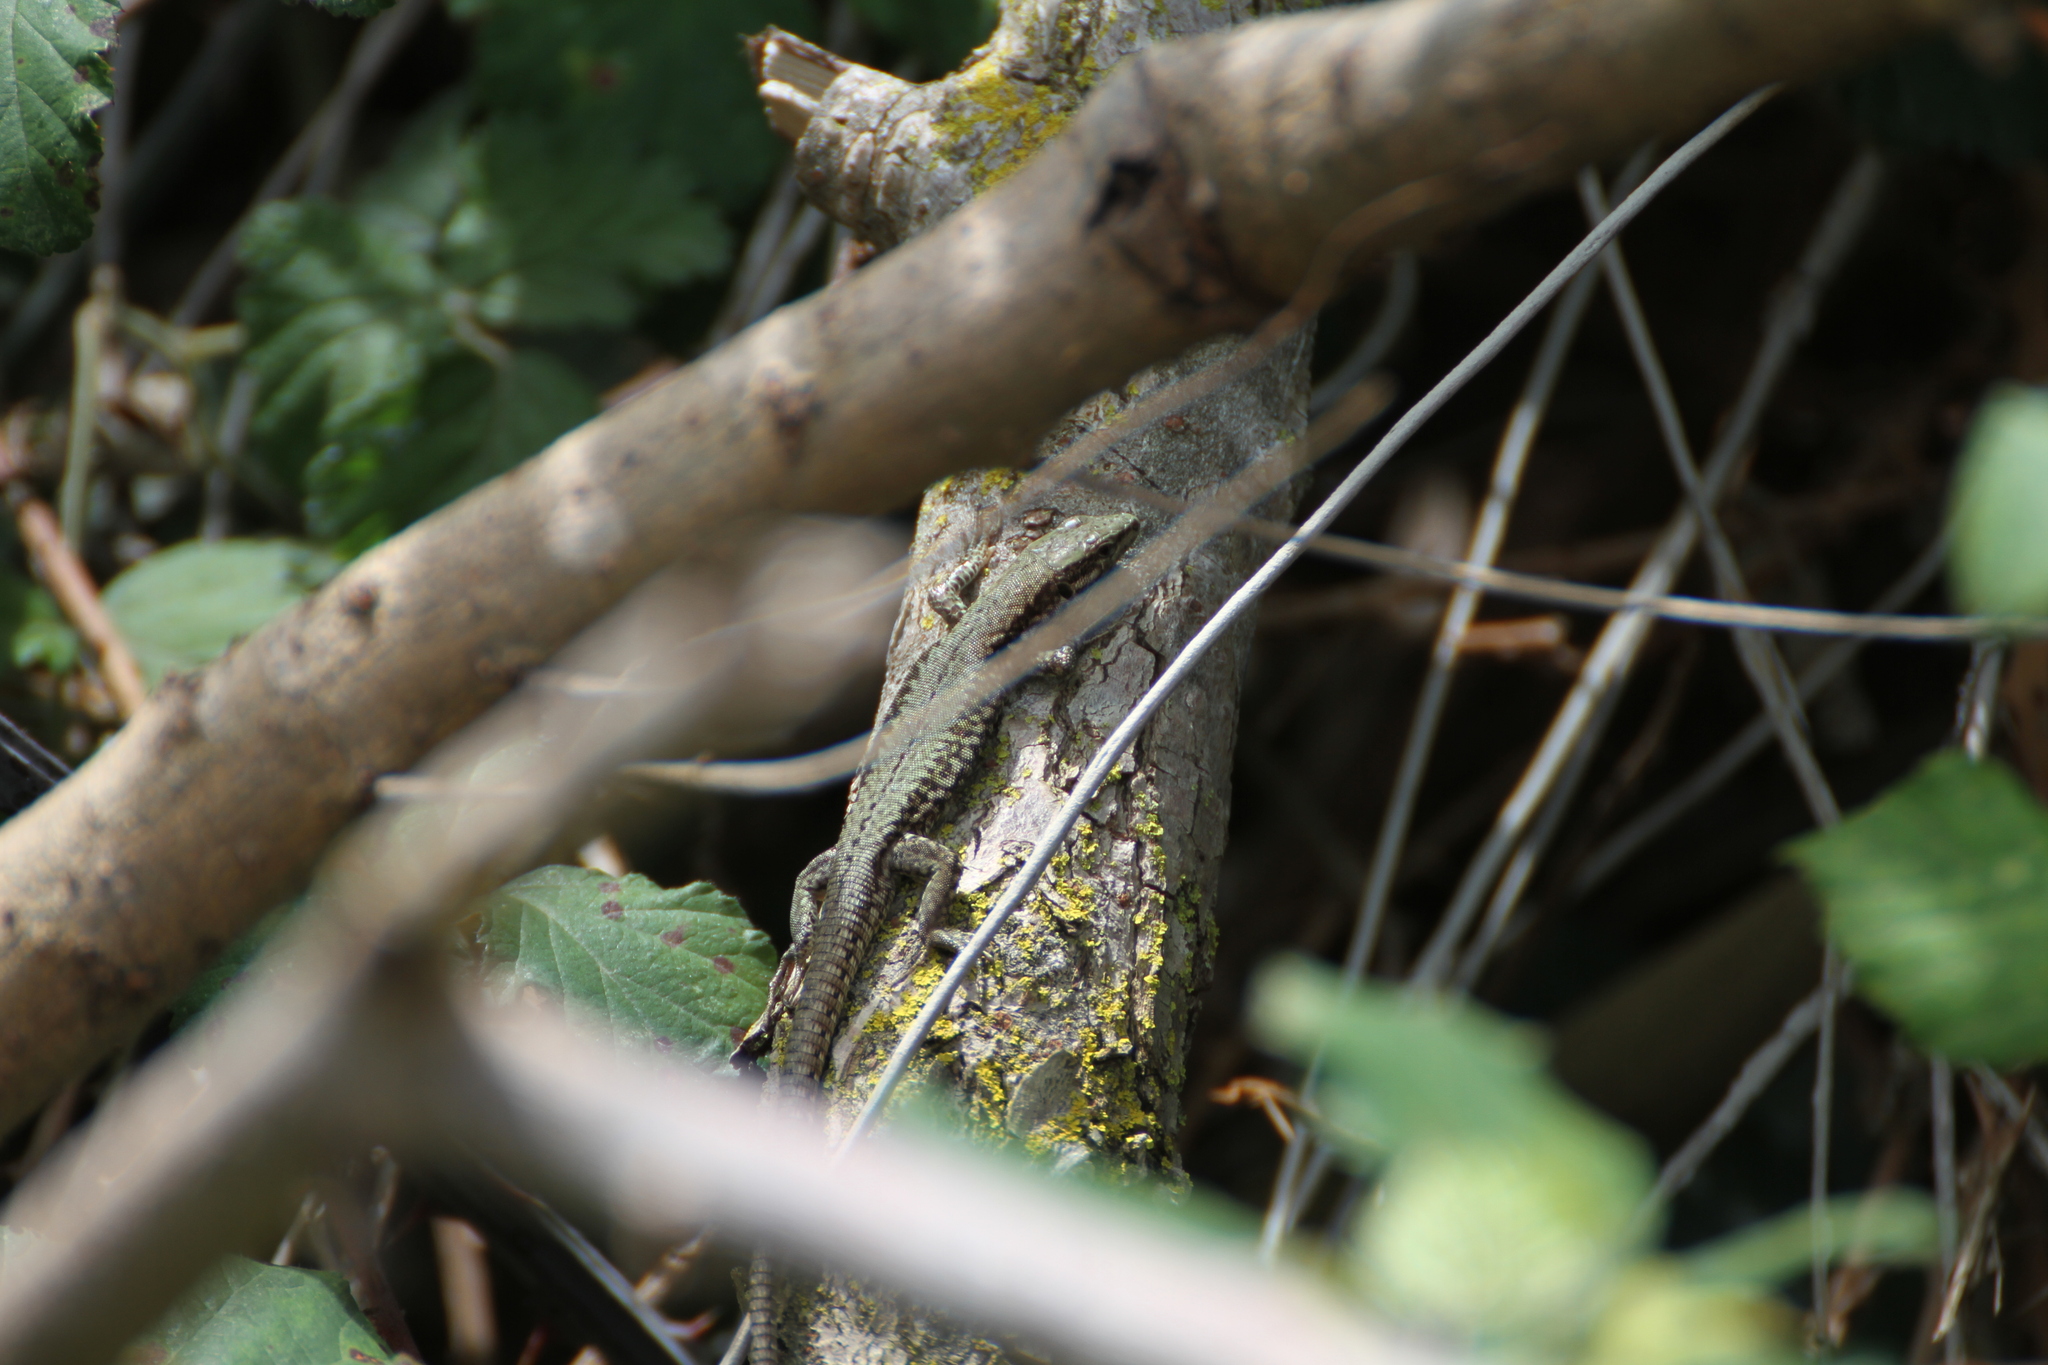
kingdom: Animalia
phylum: Chordata
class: Squamata
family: Lacertidae
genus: Podarcis
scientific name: Podarcis muralis
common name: Common wall lizard
